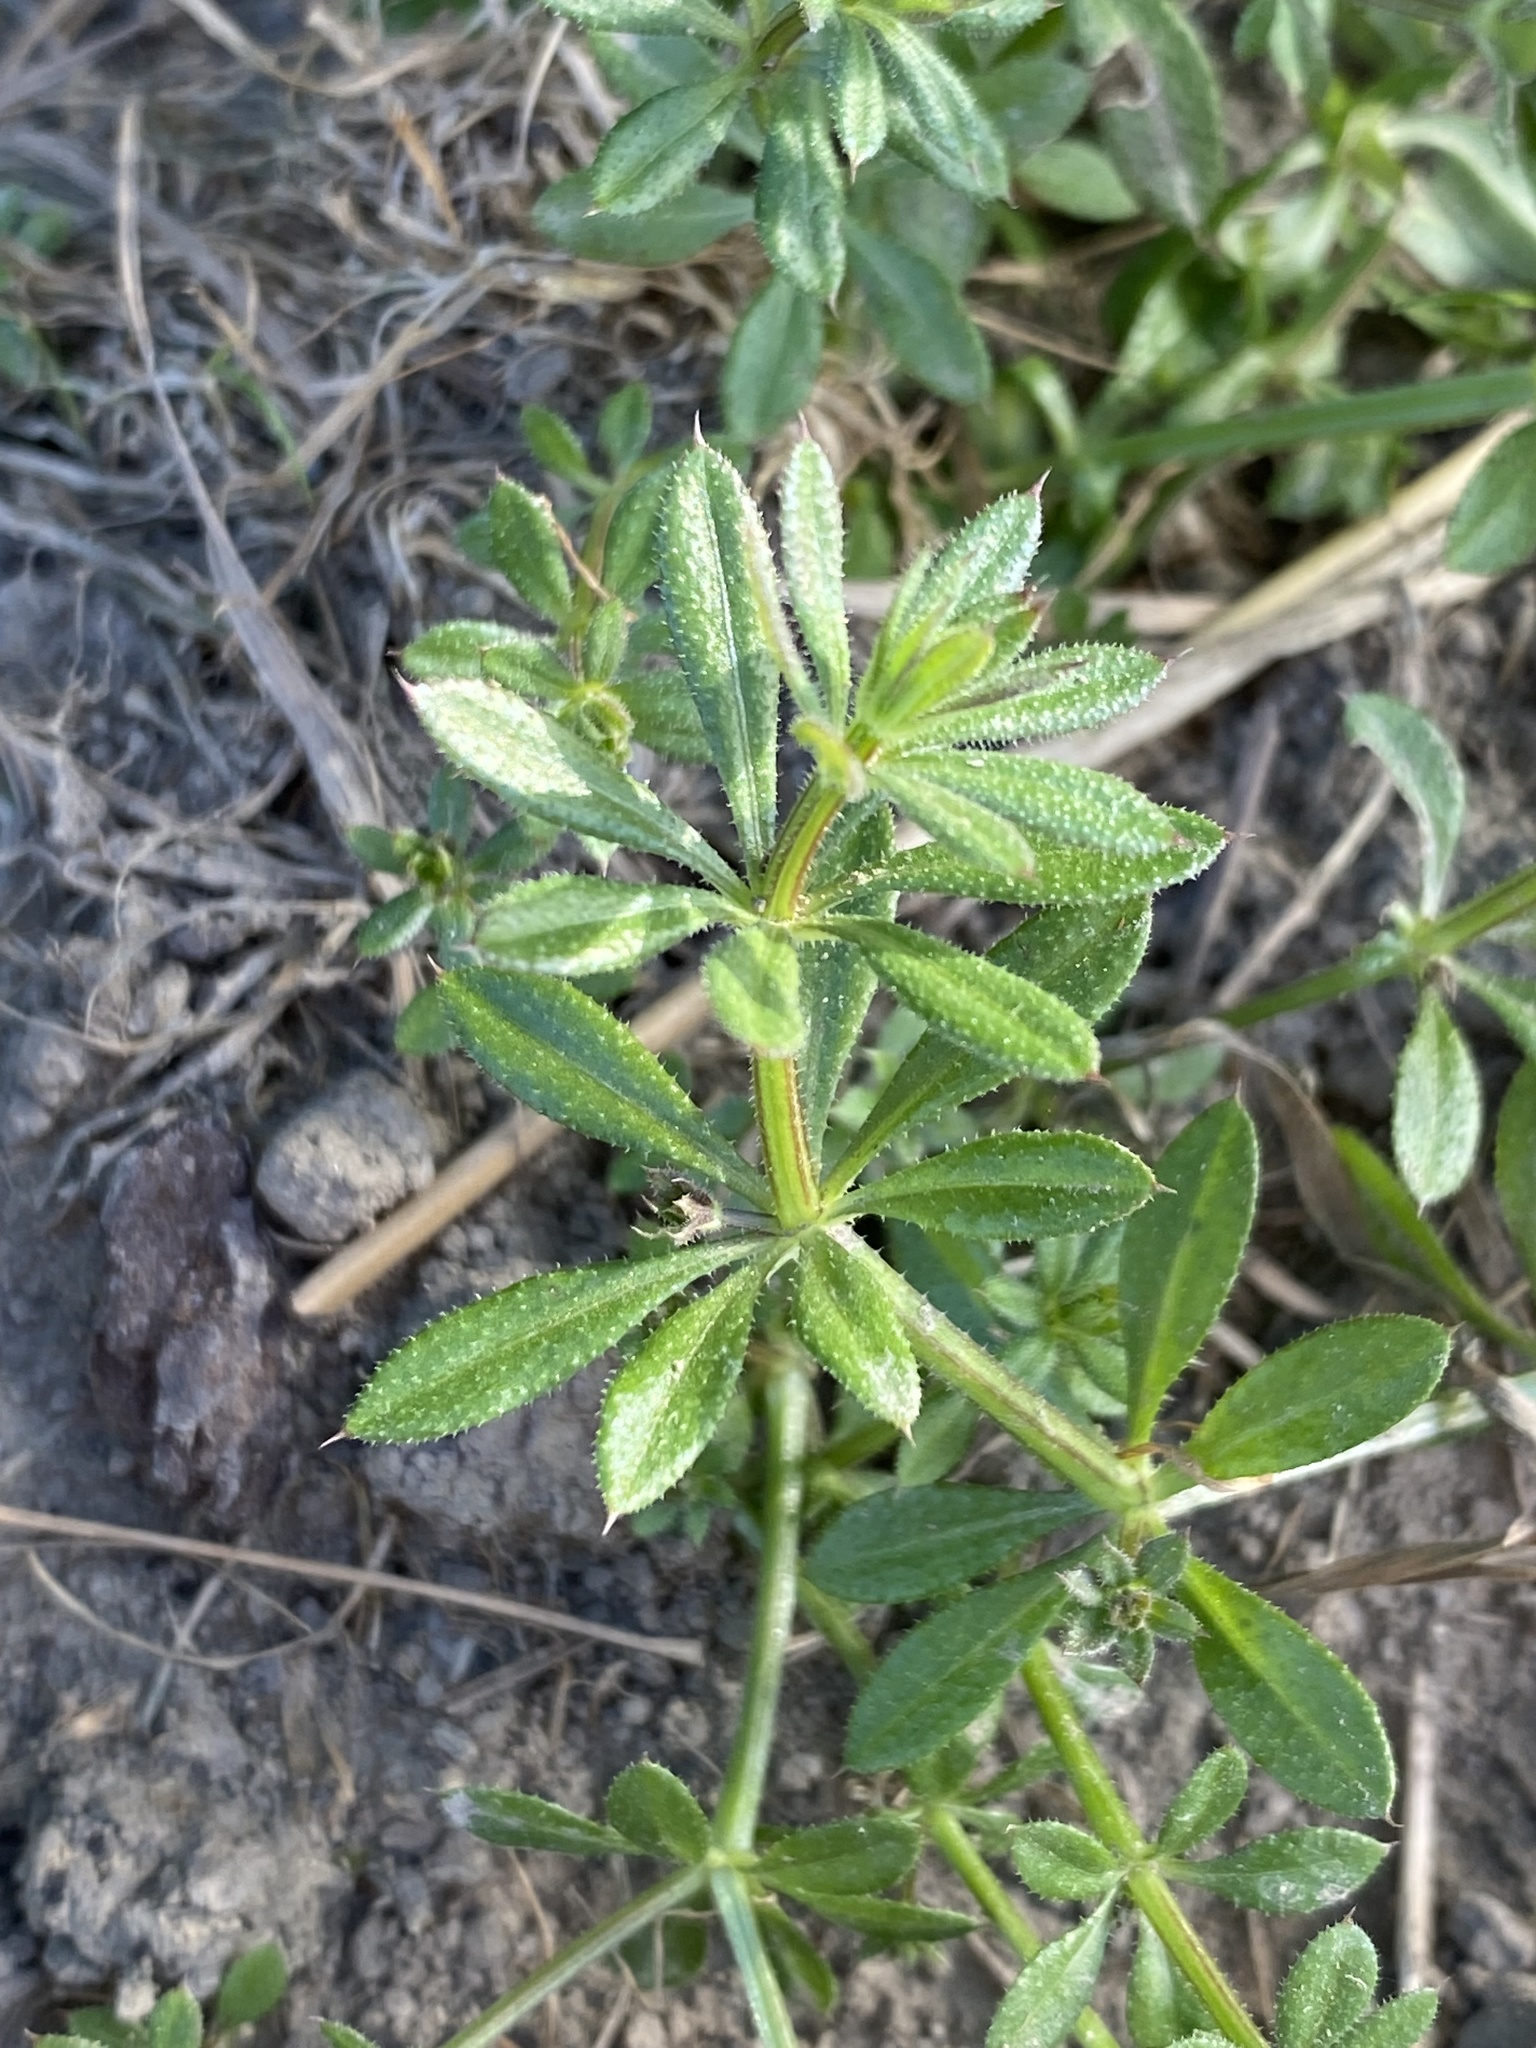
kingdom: Plantae
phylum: Tracheophyta
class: Magnoliopsida
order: Gentianales
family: Rubiaceae
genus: Galium
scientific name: Galium aparine
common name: Cleavers
